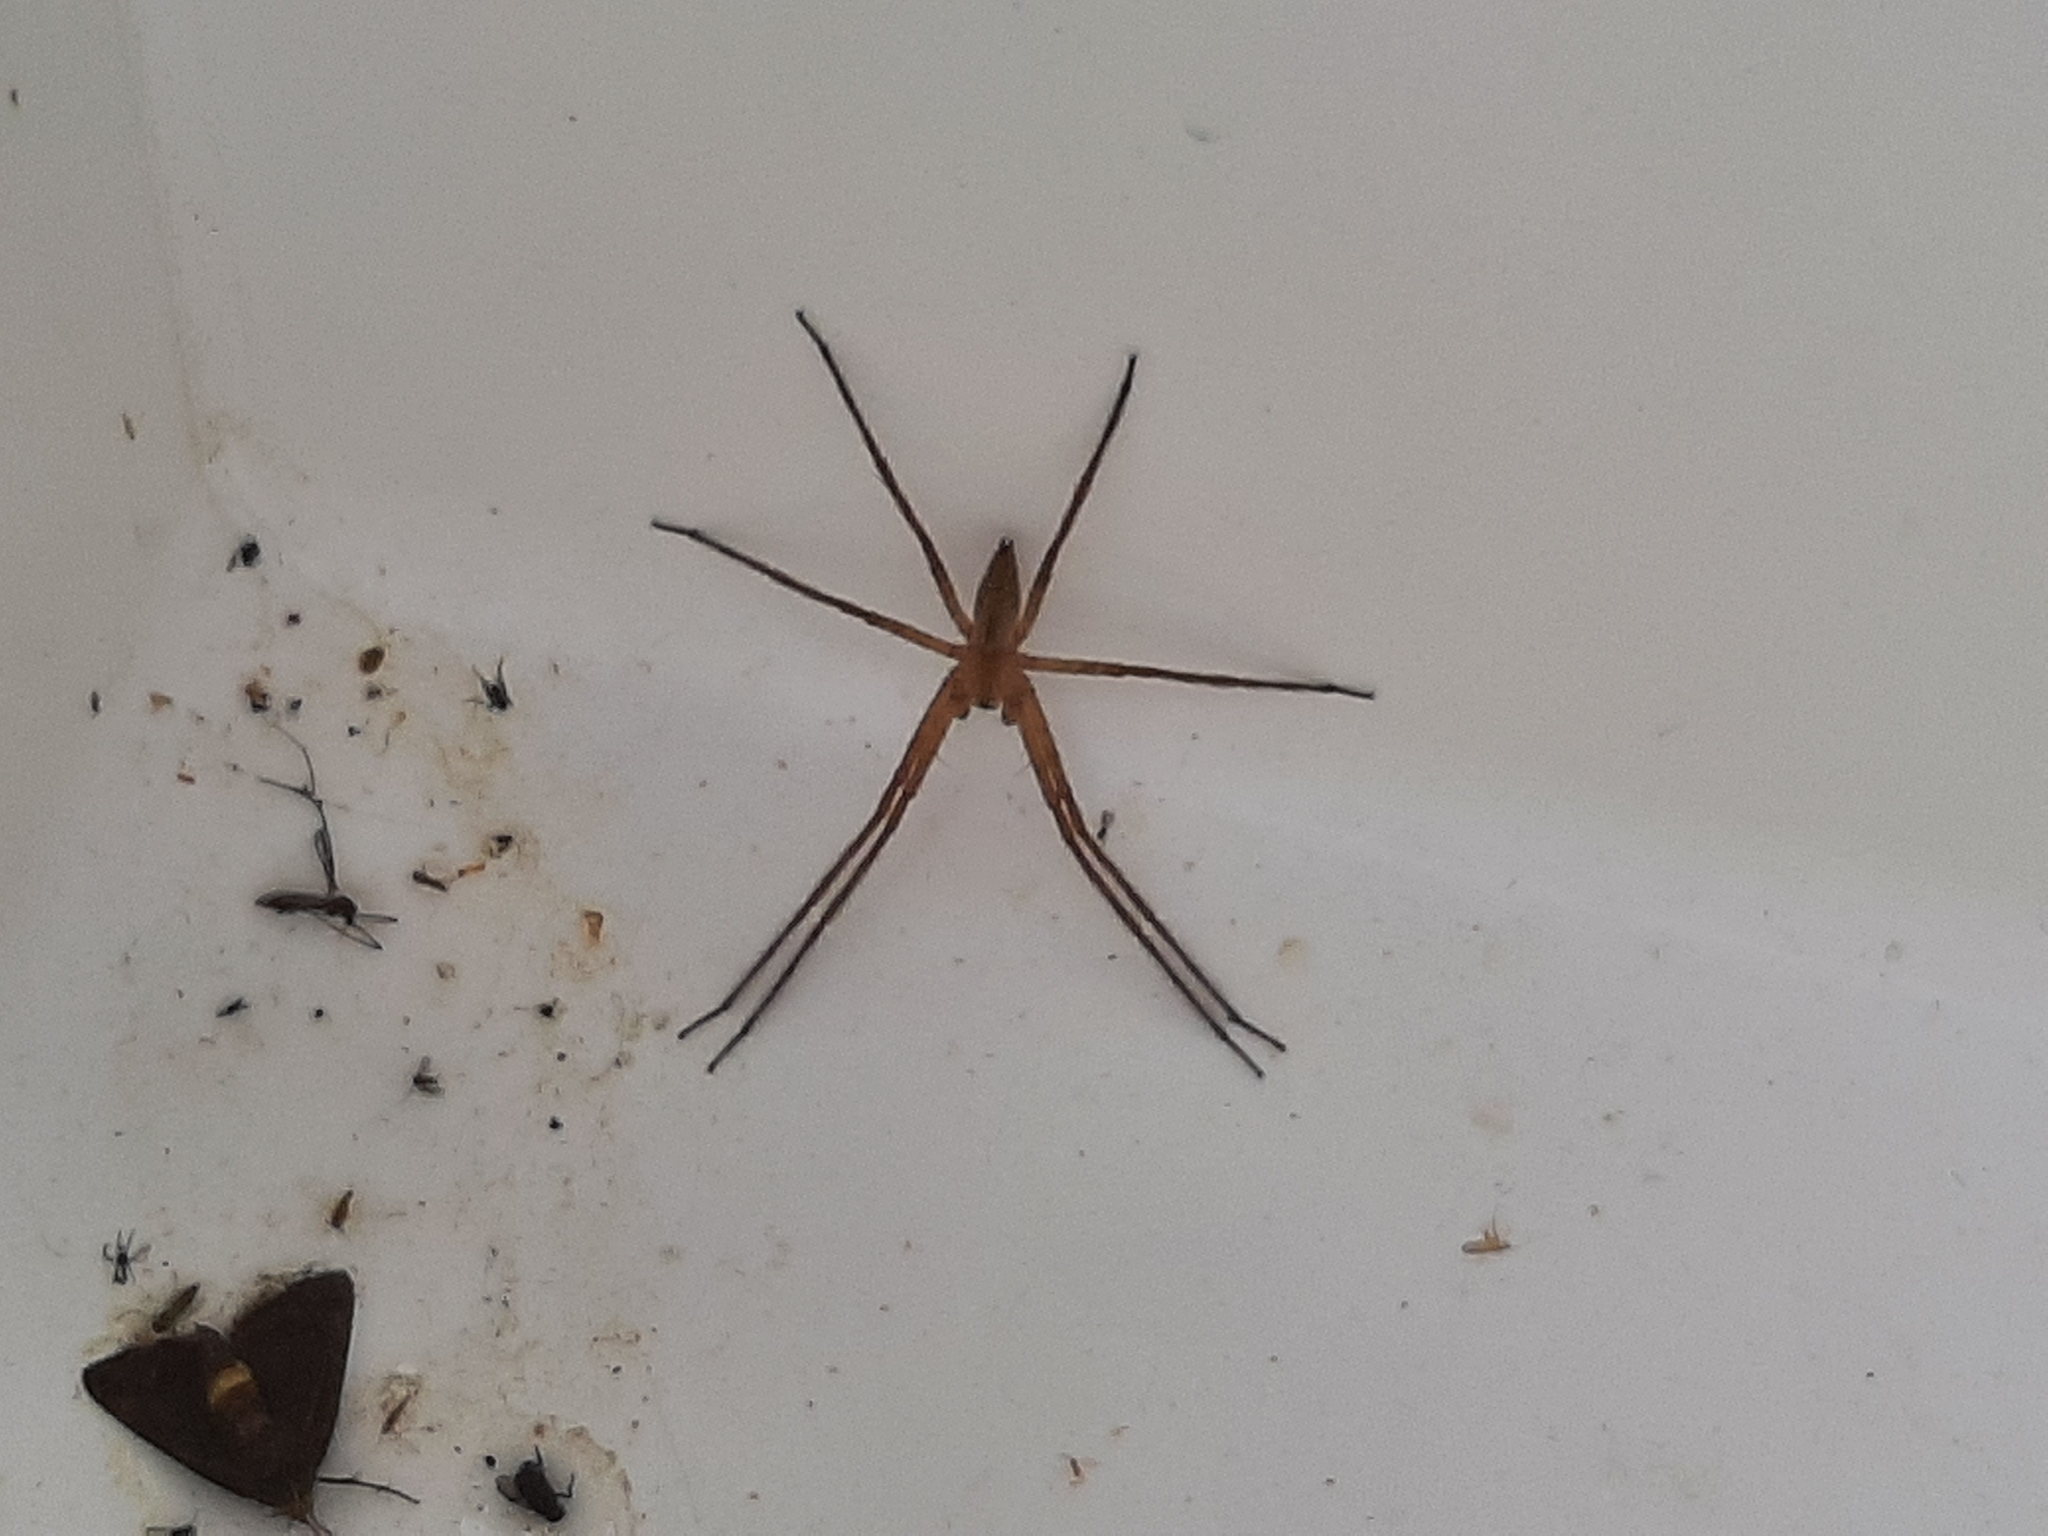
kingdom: Animalia
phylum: Arthropoda
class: Arachnida
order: Araneae
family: Pisauridae
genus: Pisaurina
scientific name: Pisaurina mira
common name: American nursery web spider
